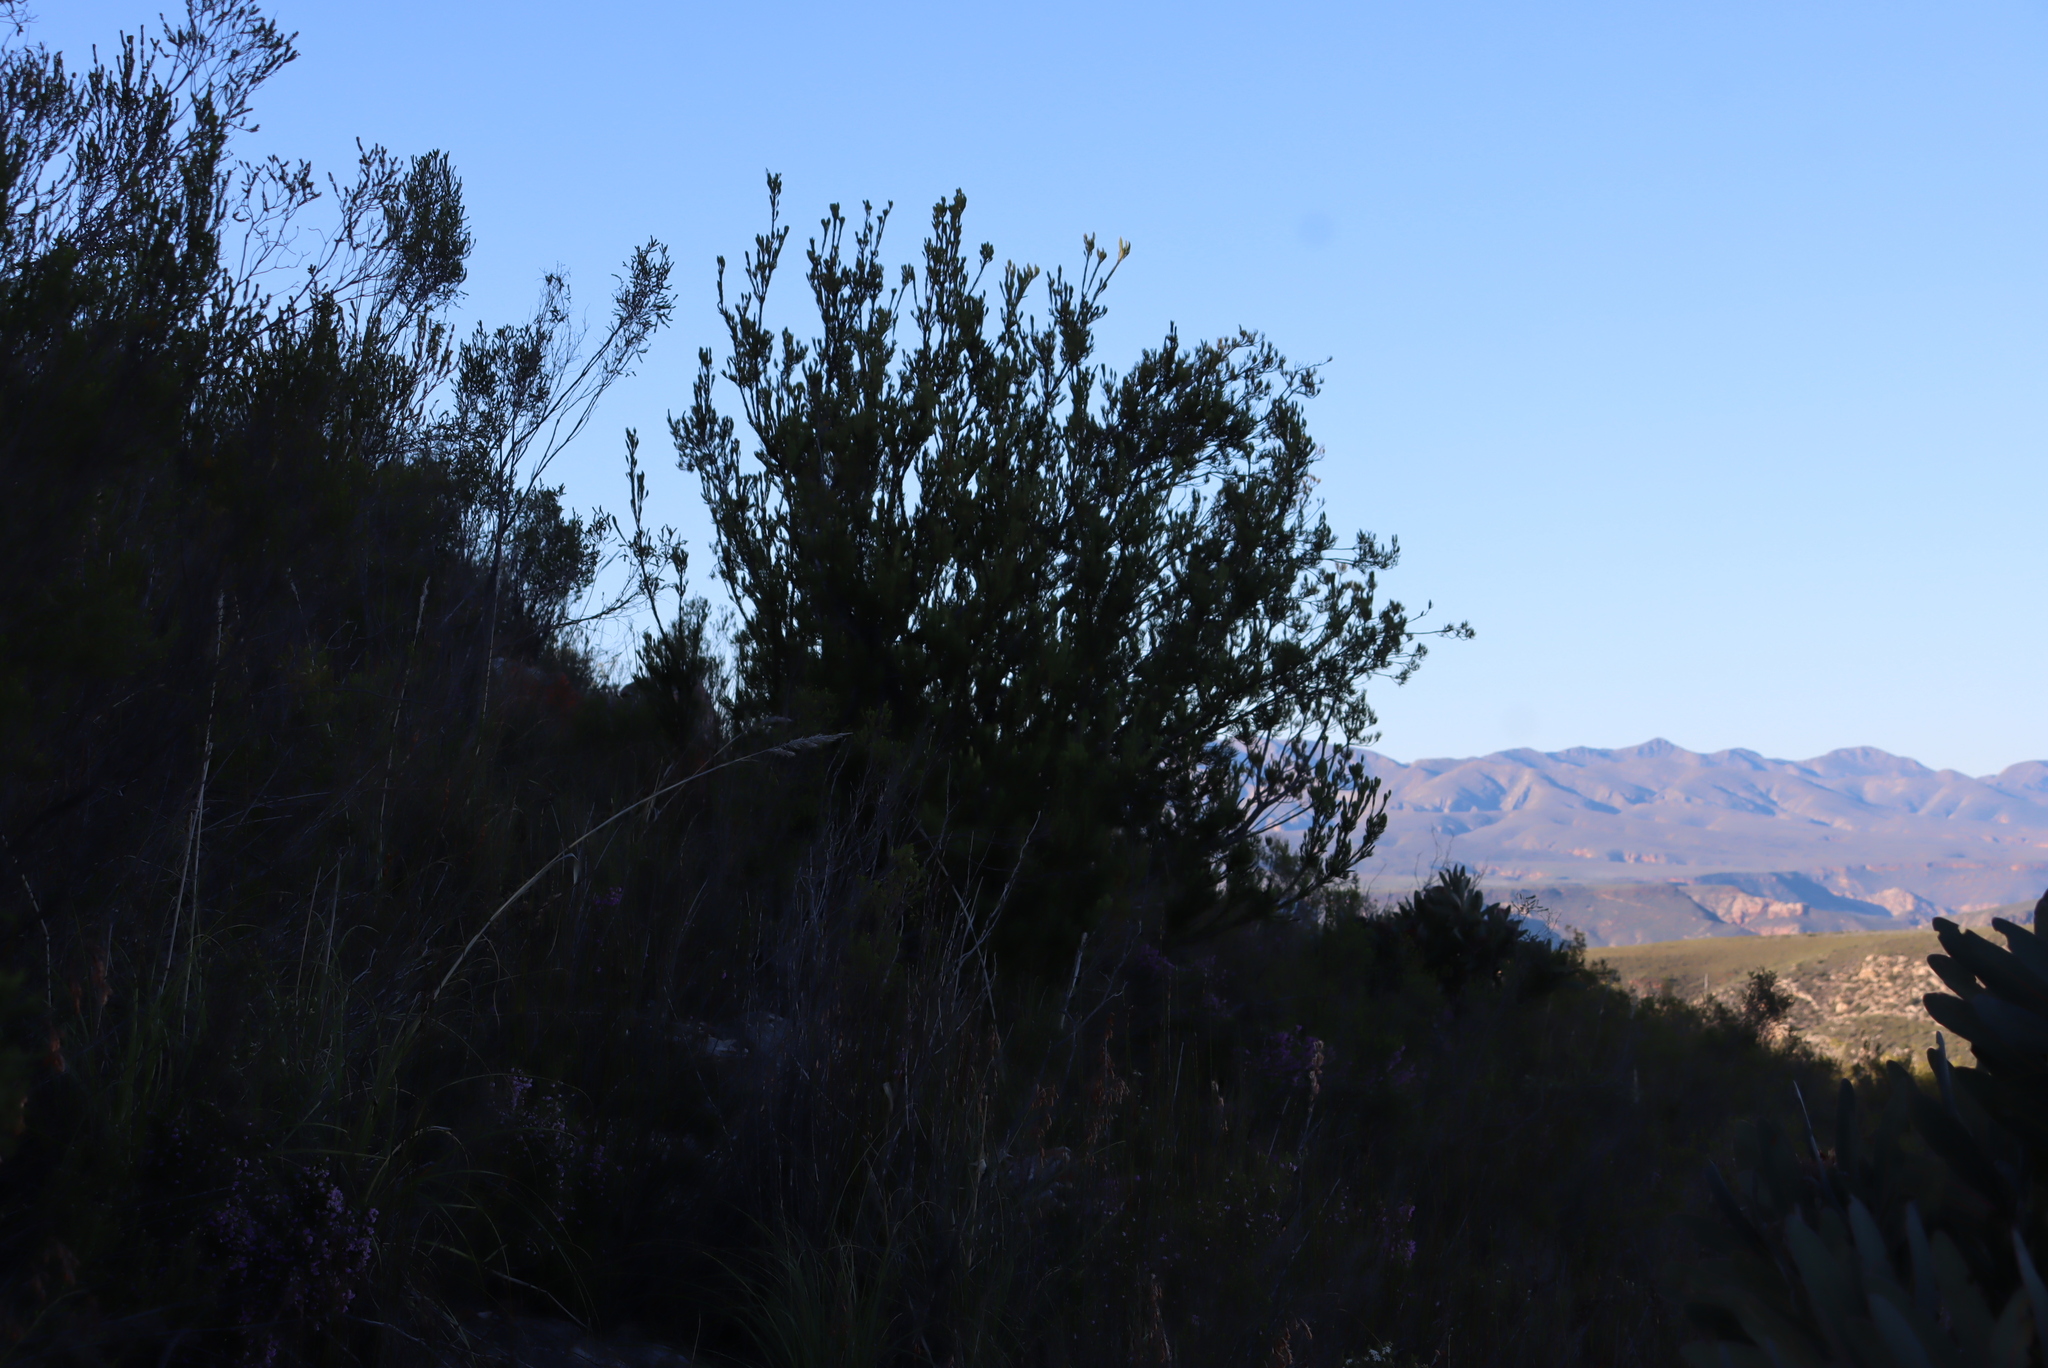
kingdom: Plantae
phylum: Tracheophyta
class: Magnoliopsida
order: Proteales
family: Proteaceae
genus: Leucadendron
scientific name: Leucadendron nobile
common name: Karoo conebush
